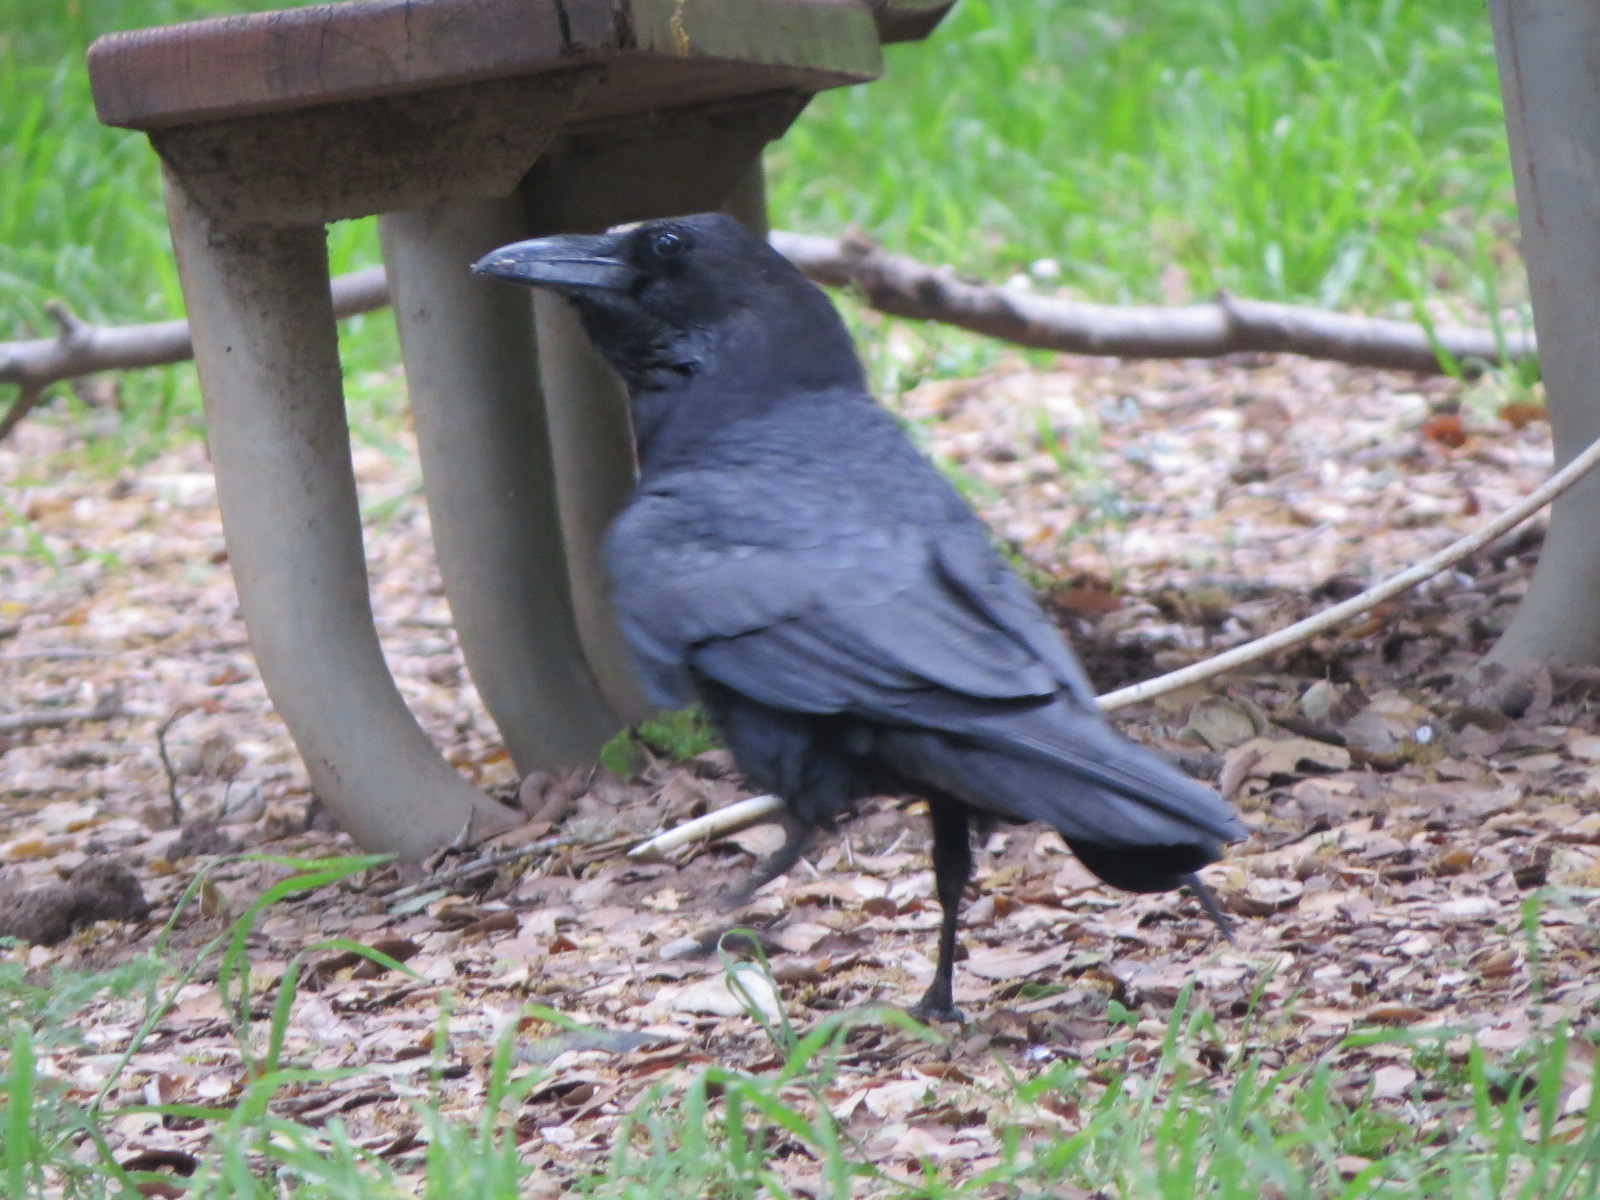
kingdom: Animalia
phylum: Chordata
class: Aves
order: Passeriformes
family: Corvidae
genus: Corvus
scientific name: Corvus corax
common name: Common raven
